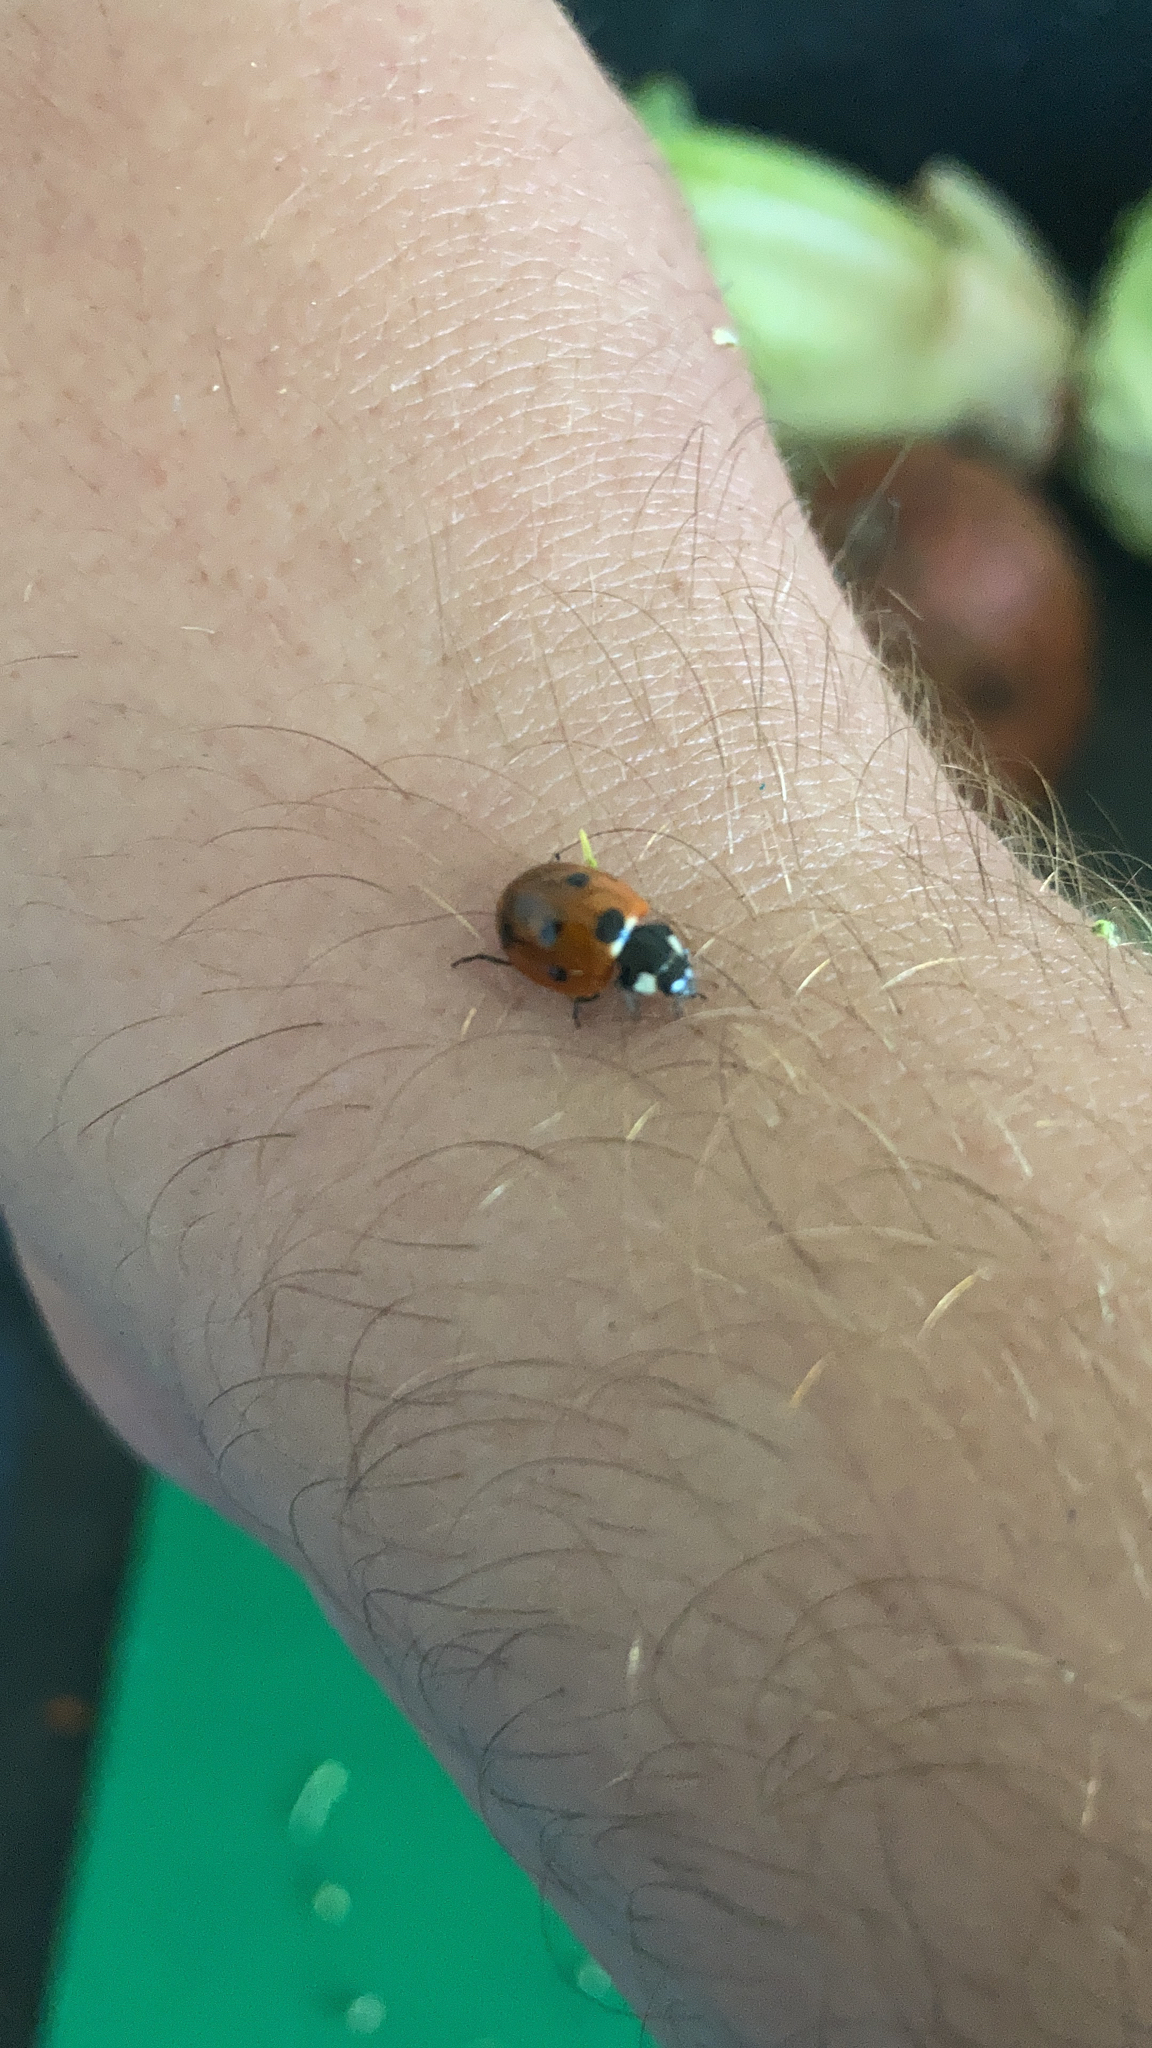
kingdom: Animalia
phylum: Arthropoda
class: Insecta
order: Coleoptera
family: Coccinellidae
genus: Coccinella
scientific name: Coccinella septempunctata
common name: Sevenspotted lady beetle
